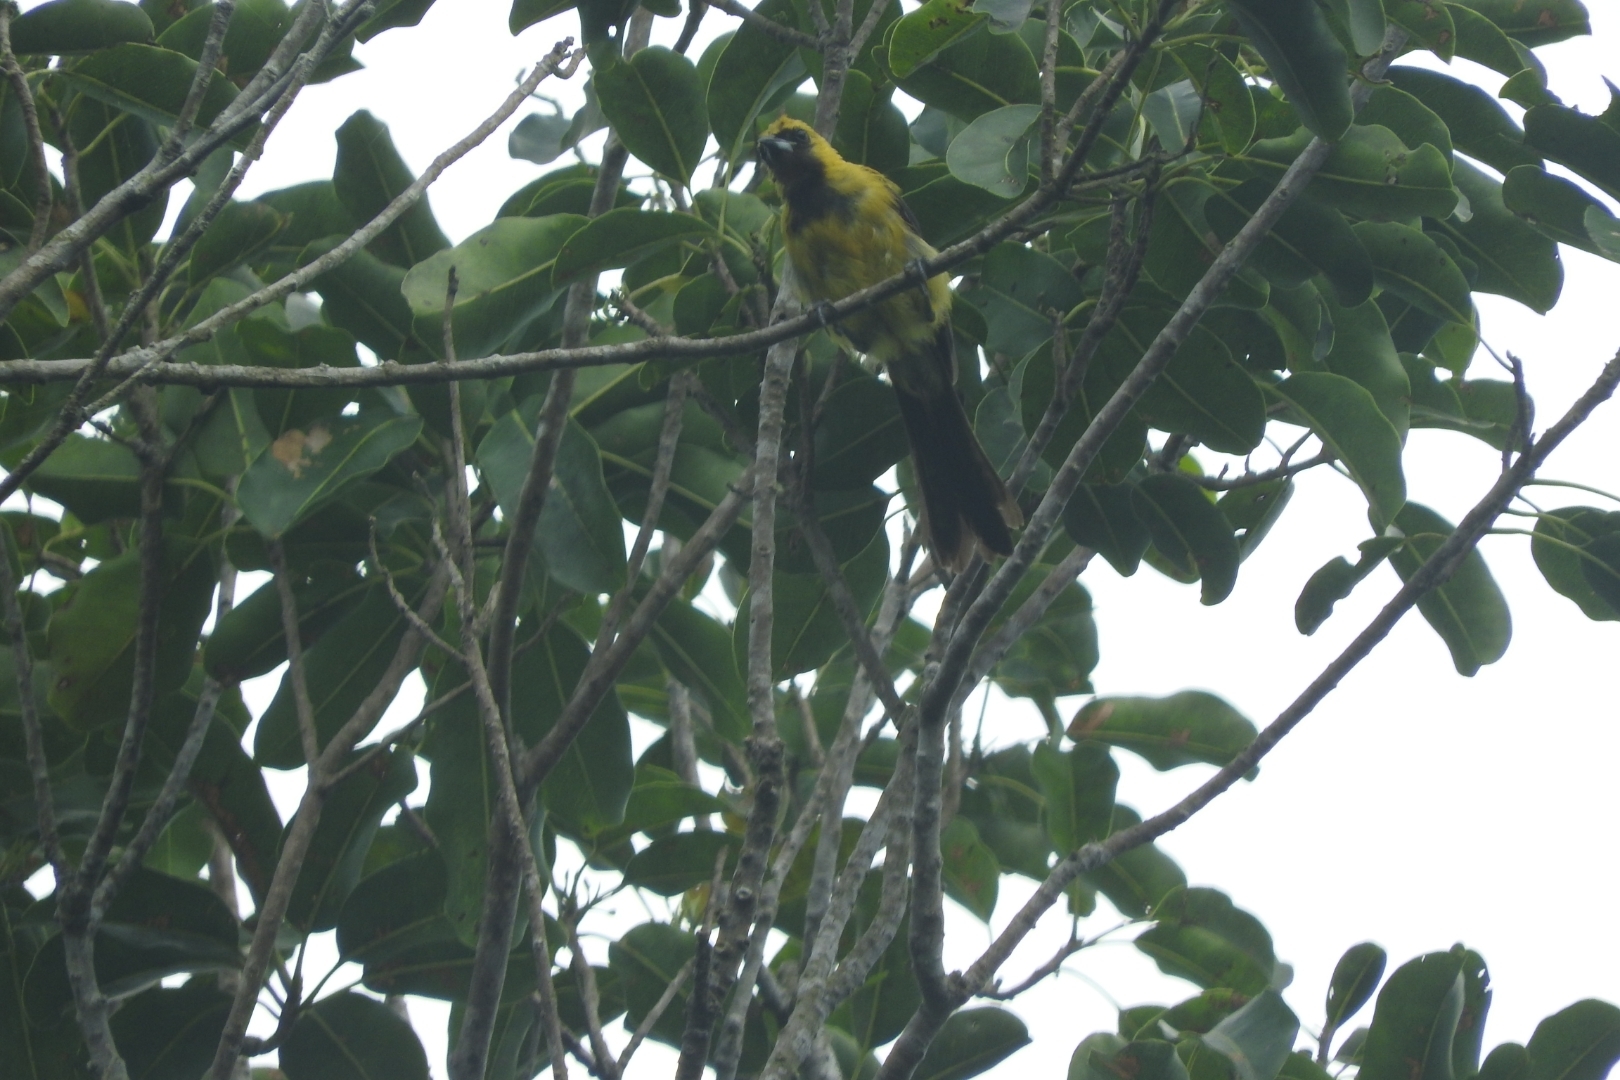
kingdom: Animalia
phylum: Chordata
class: Aves
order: Passeriformes
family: Icteridae
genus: Icterus
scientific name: Icterus mesomelas
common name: Yellow-tailed oriole
